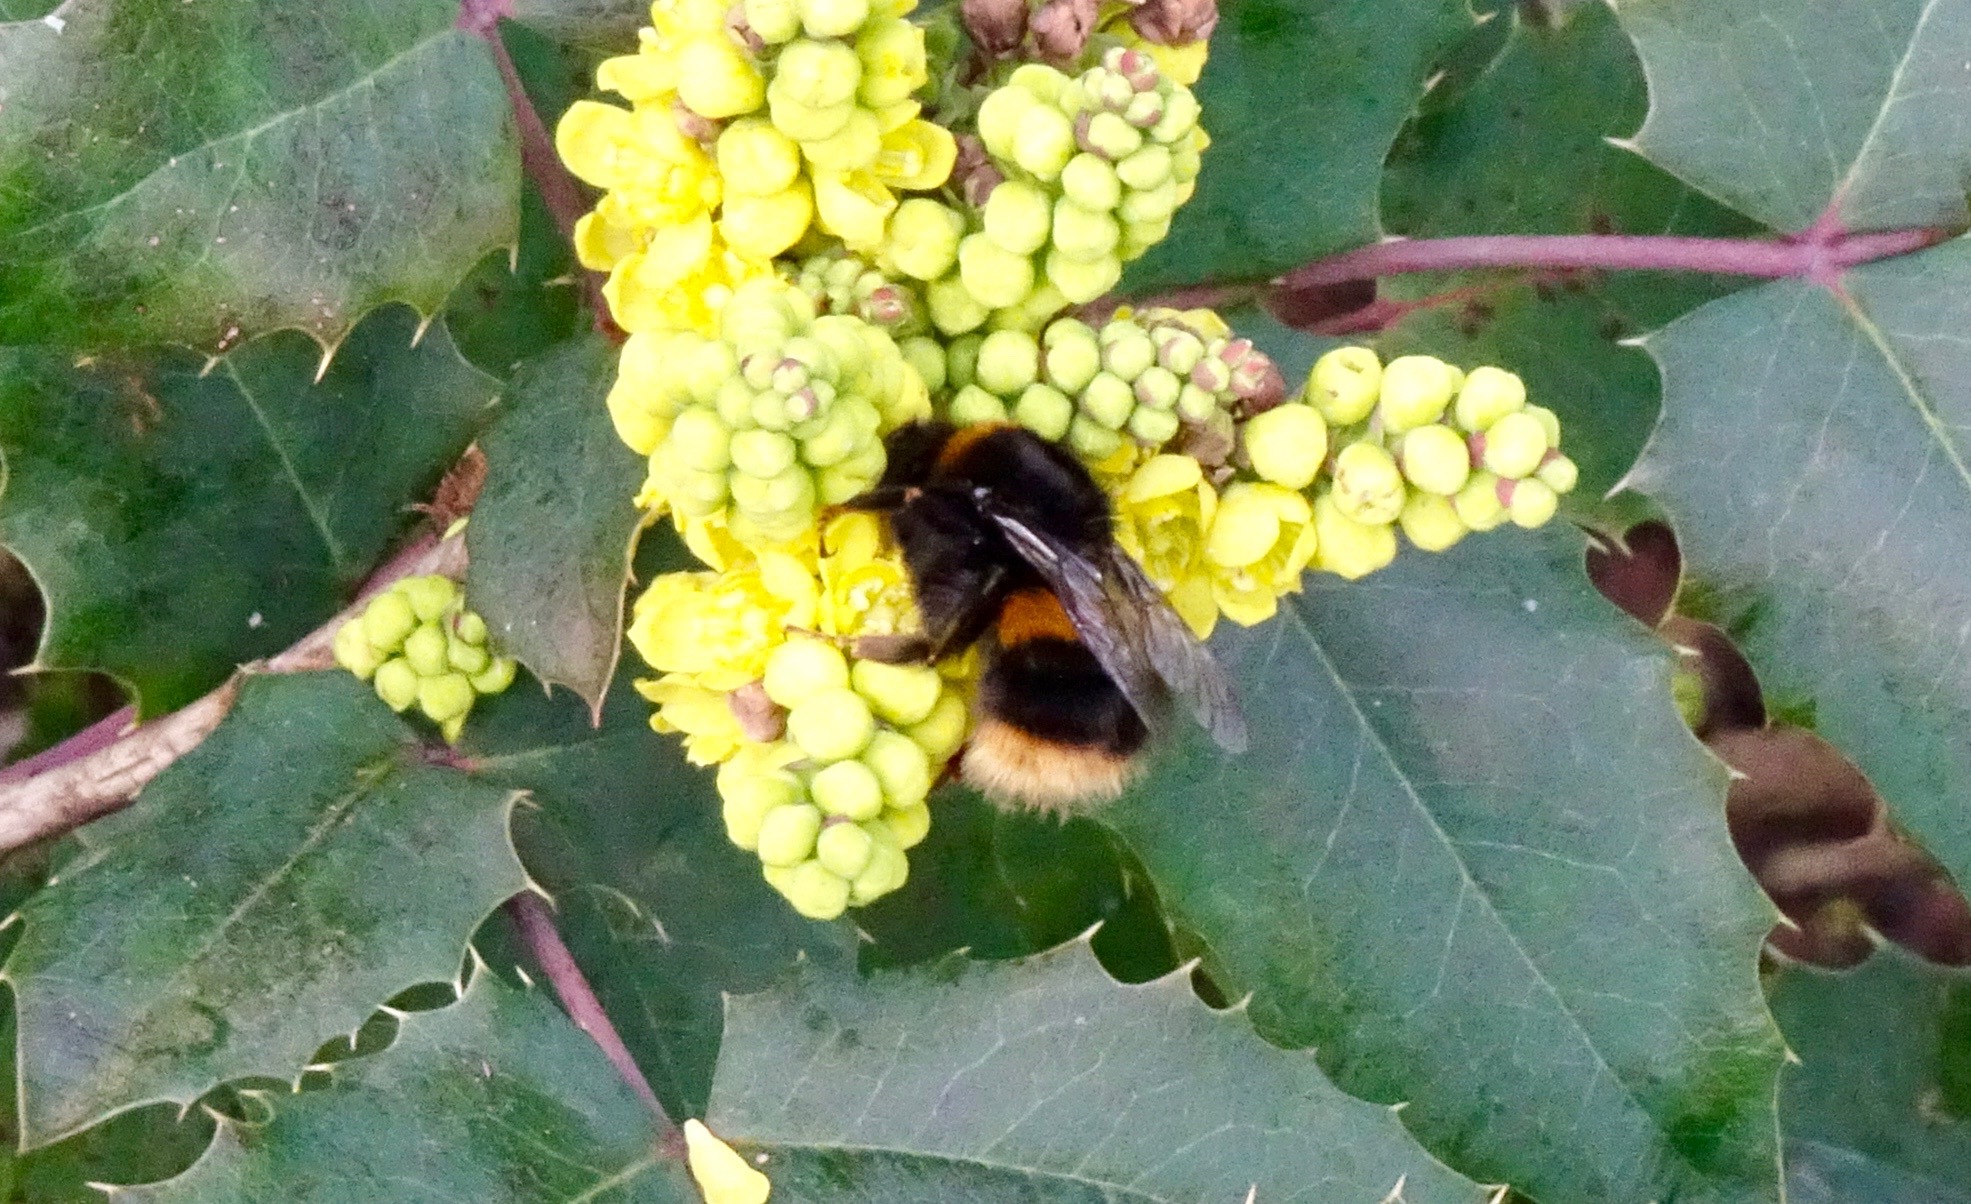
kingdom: Animalia
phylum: Arthropoda
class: Insecta
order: Hymenoptera
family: Apidae
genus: Bombus
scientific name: Bombus terrestris
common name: Buff-tailed bumblebee
